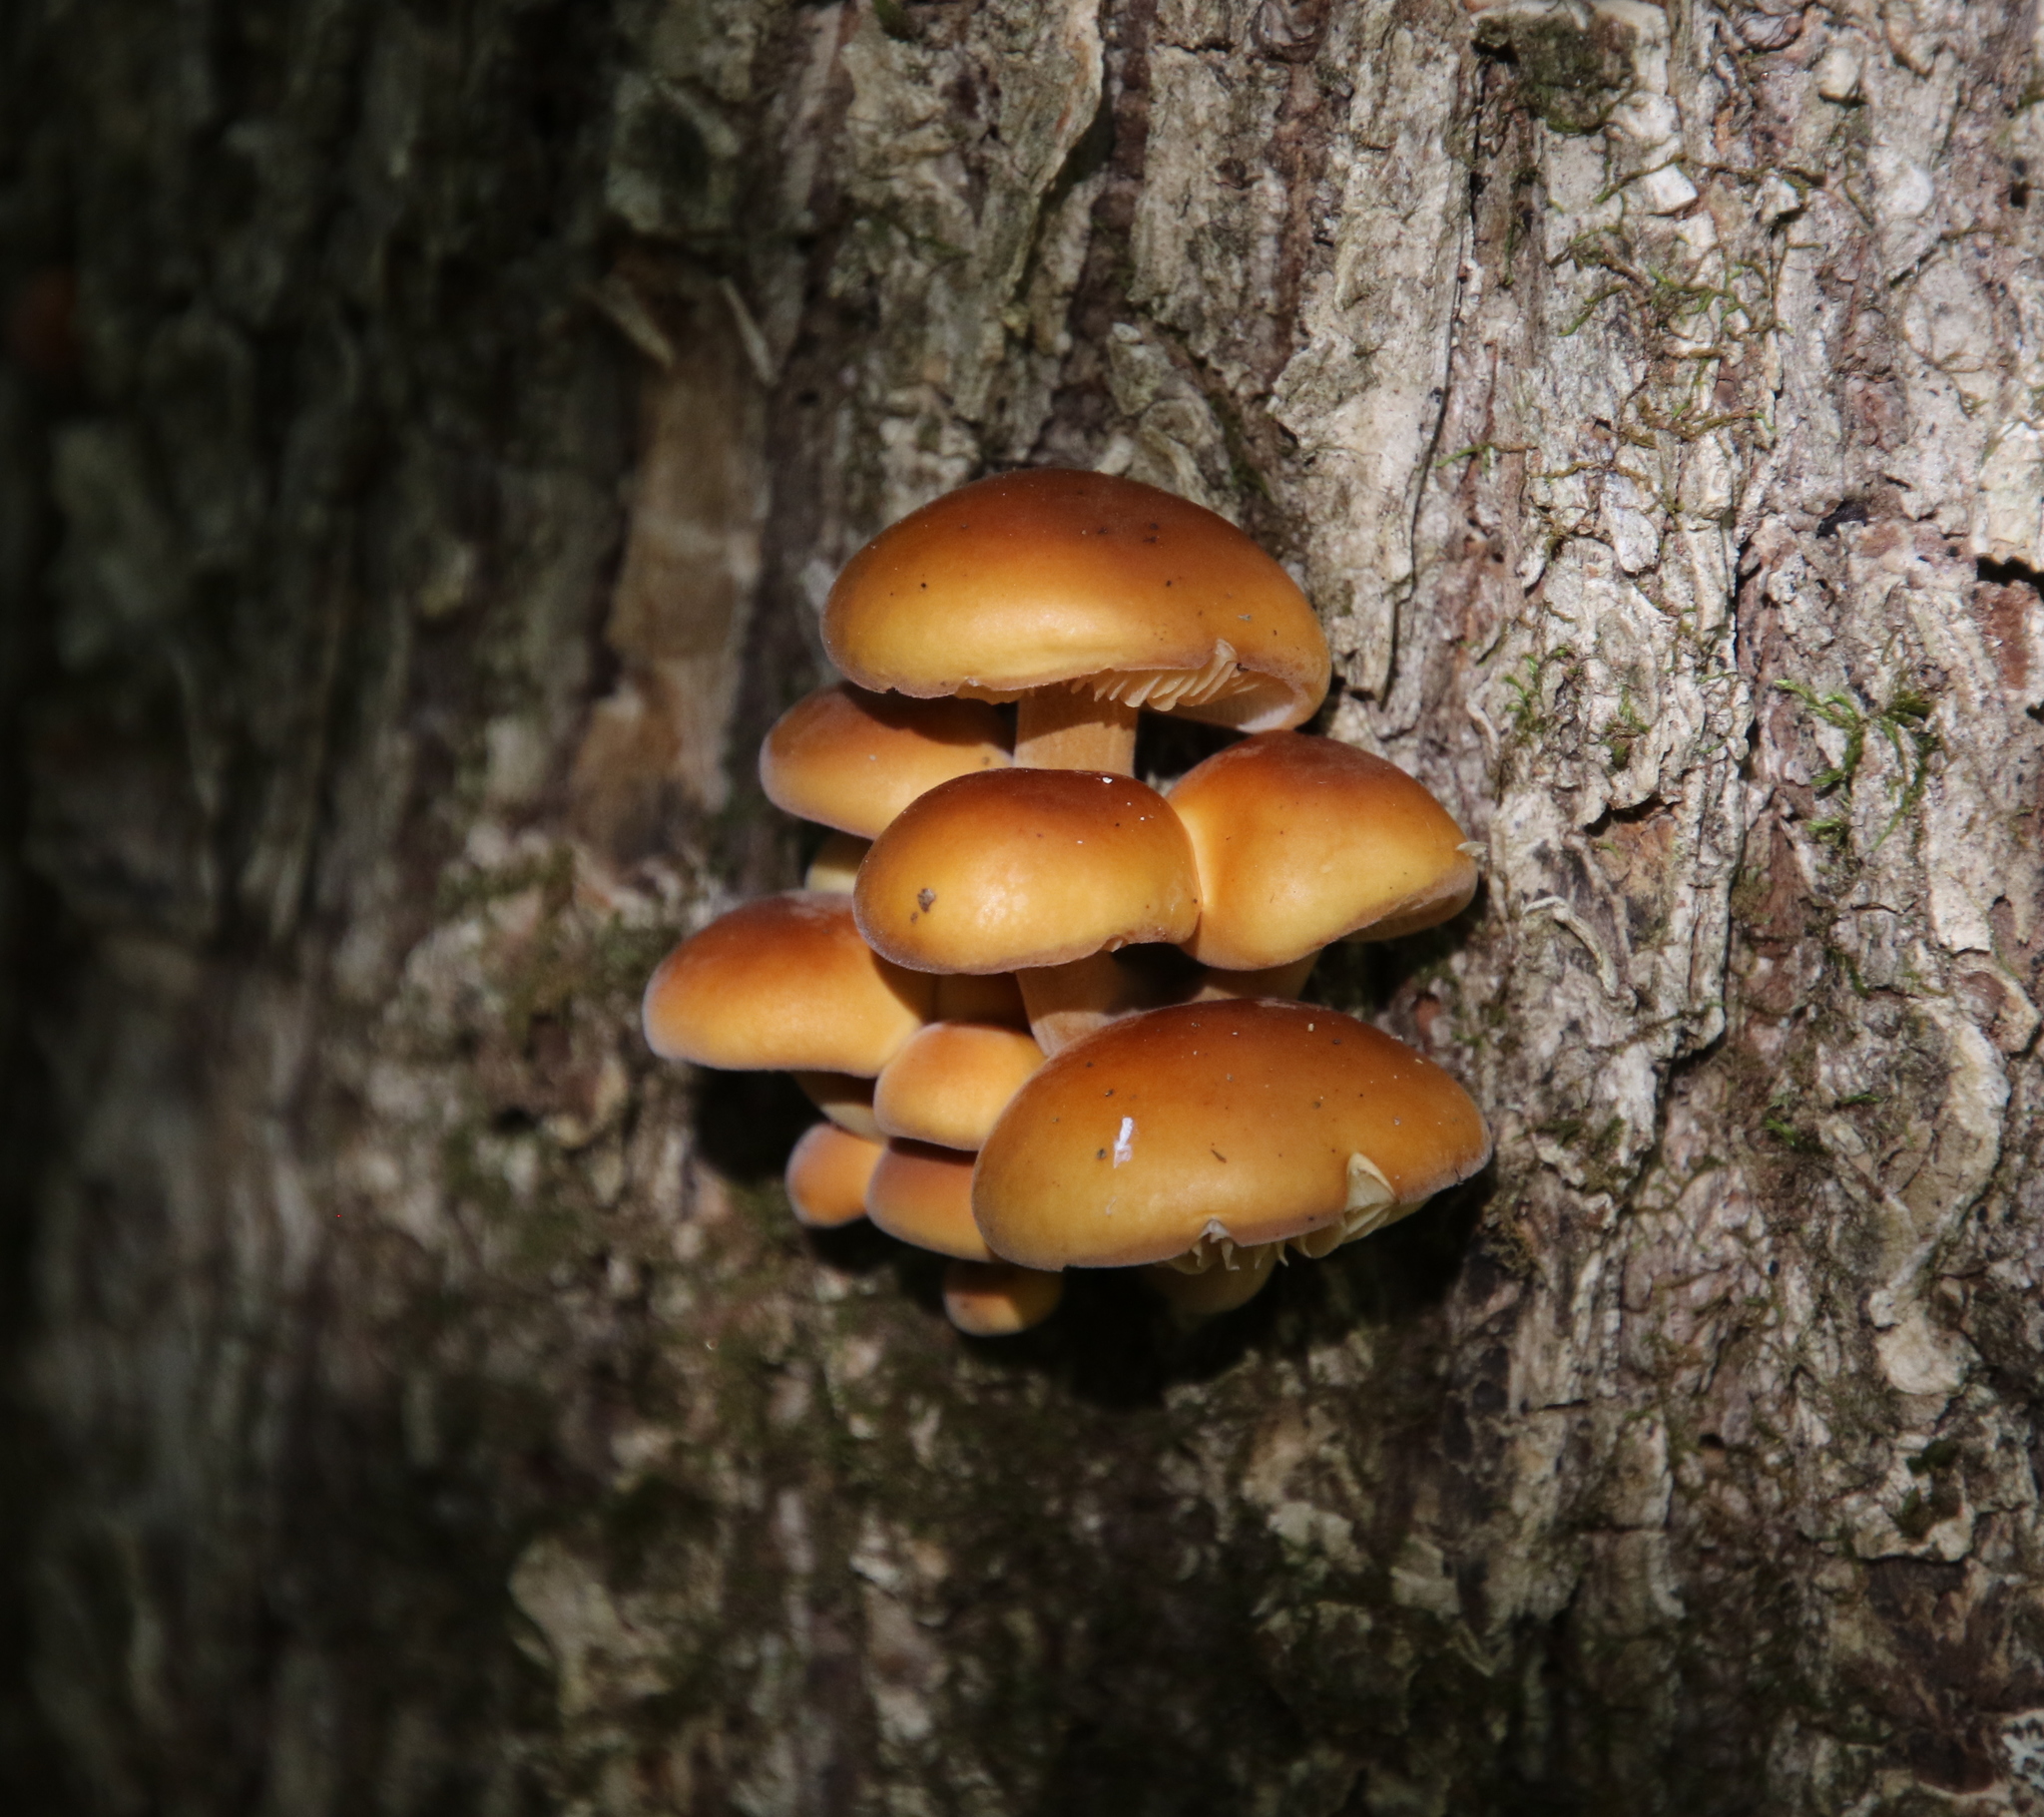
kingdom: Fungi
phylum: Basidiomycota
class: Agaricomycetes
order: Agaricales
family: Physalacriaceae
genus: Flammulina
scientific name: Flammulina velutipes
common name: Velvet shank
